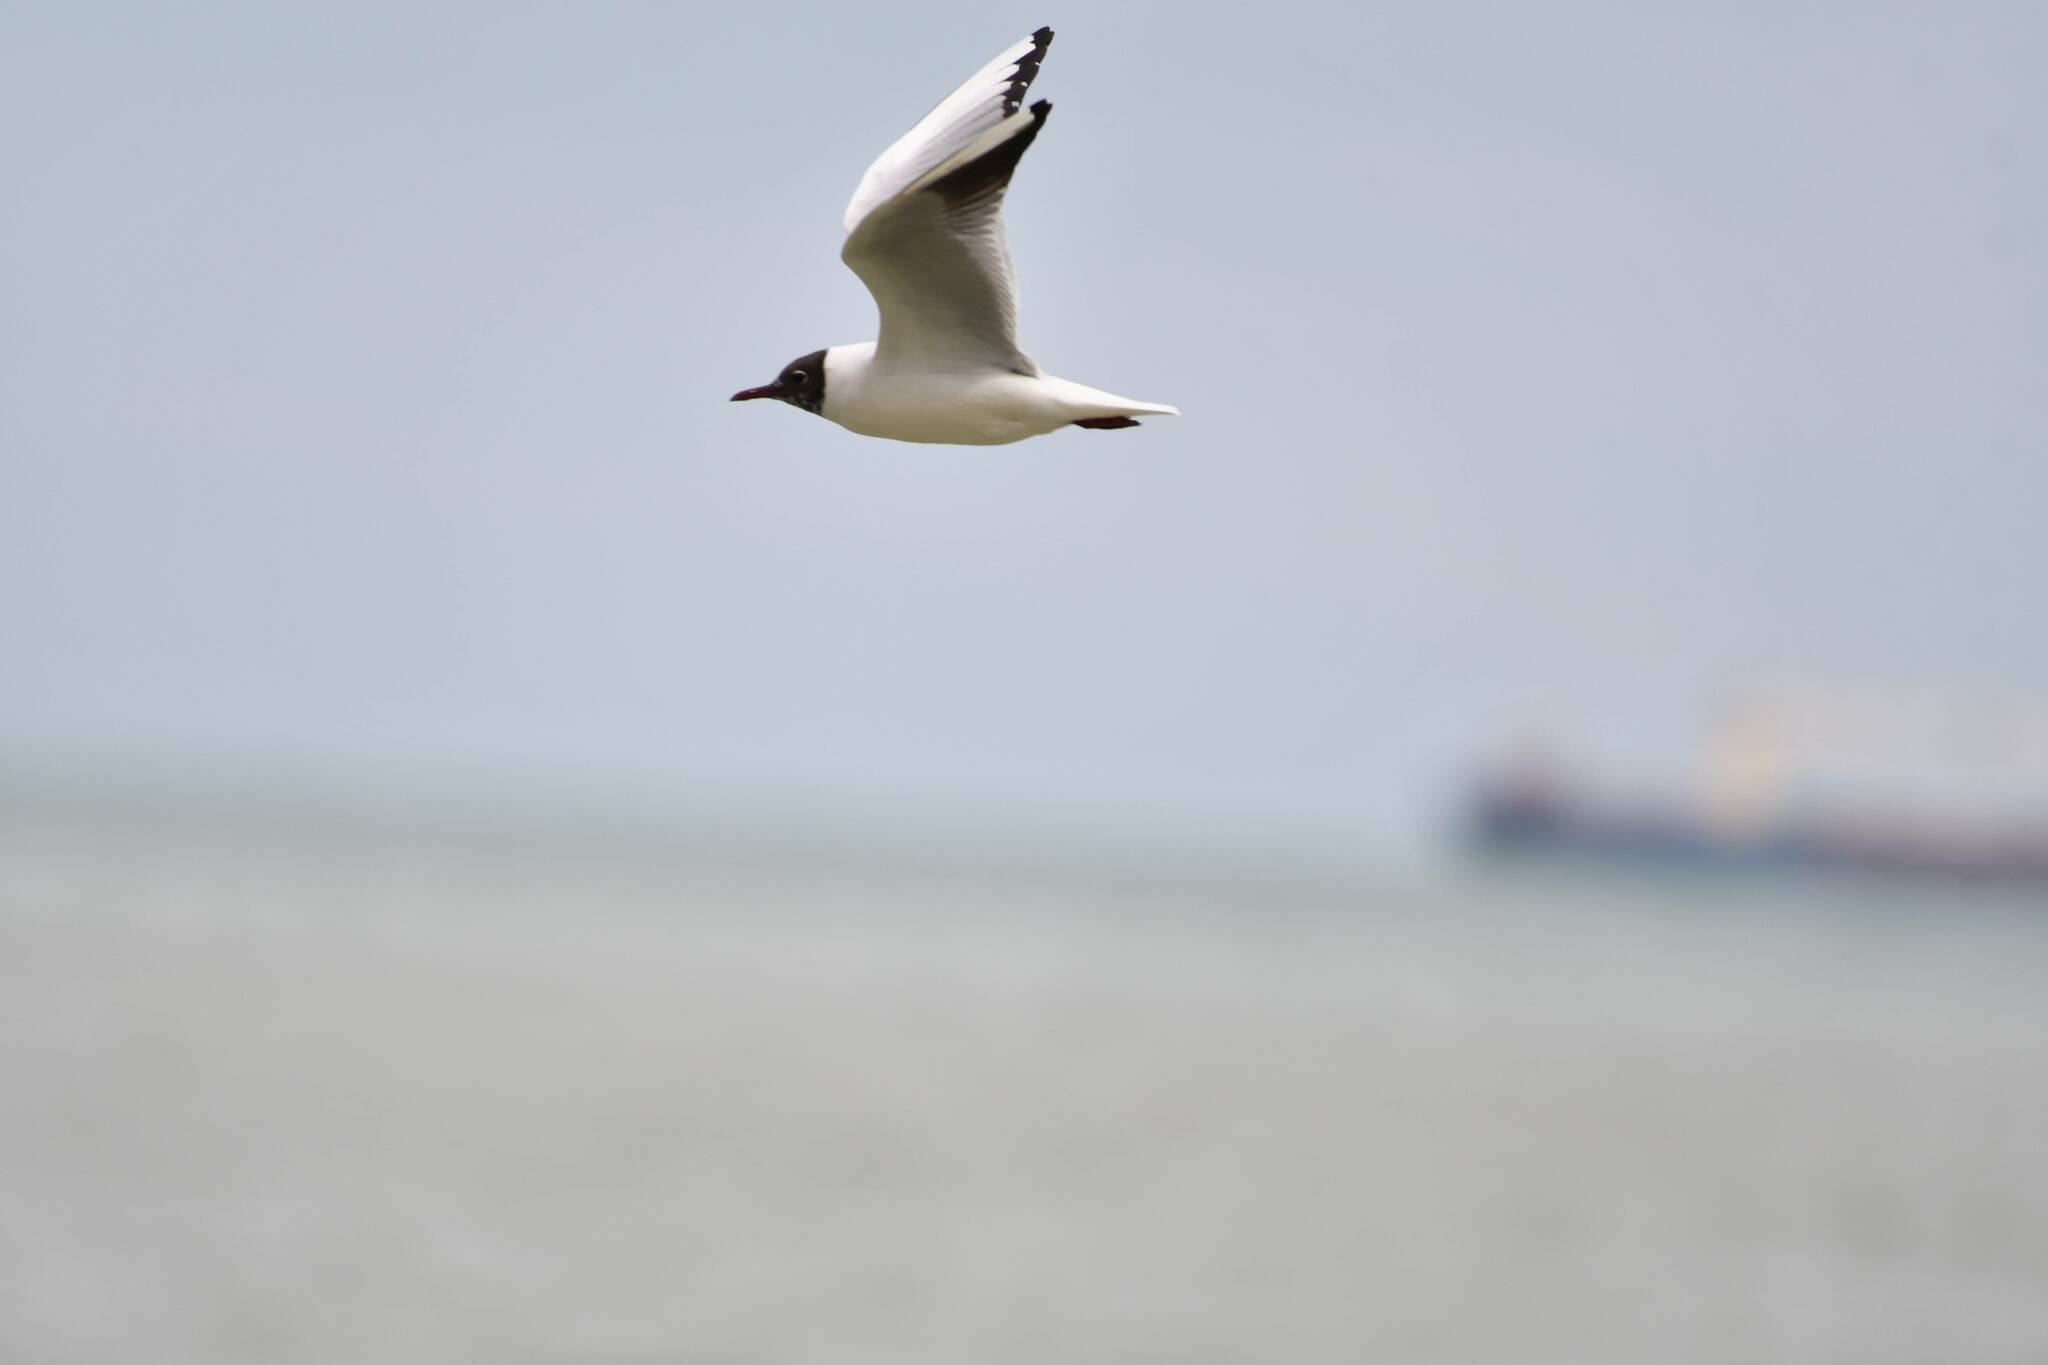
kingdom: Animalia
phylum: Chordata
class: Aves
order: Charadriiformes
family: Laridae
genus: Chroicocephalus
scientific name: Chroicocephalus ridibundus
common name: Black-headed gull
